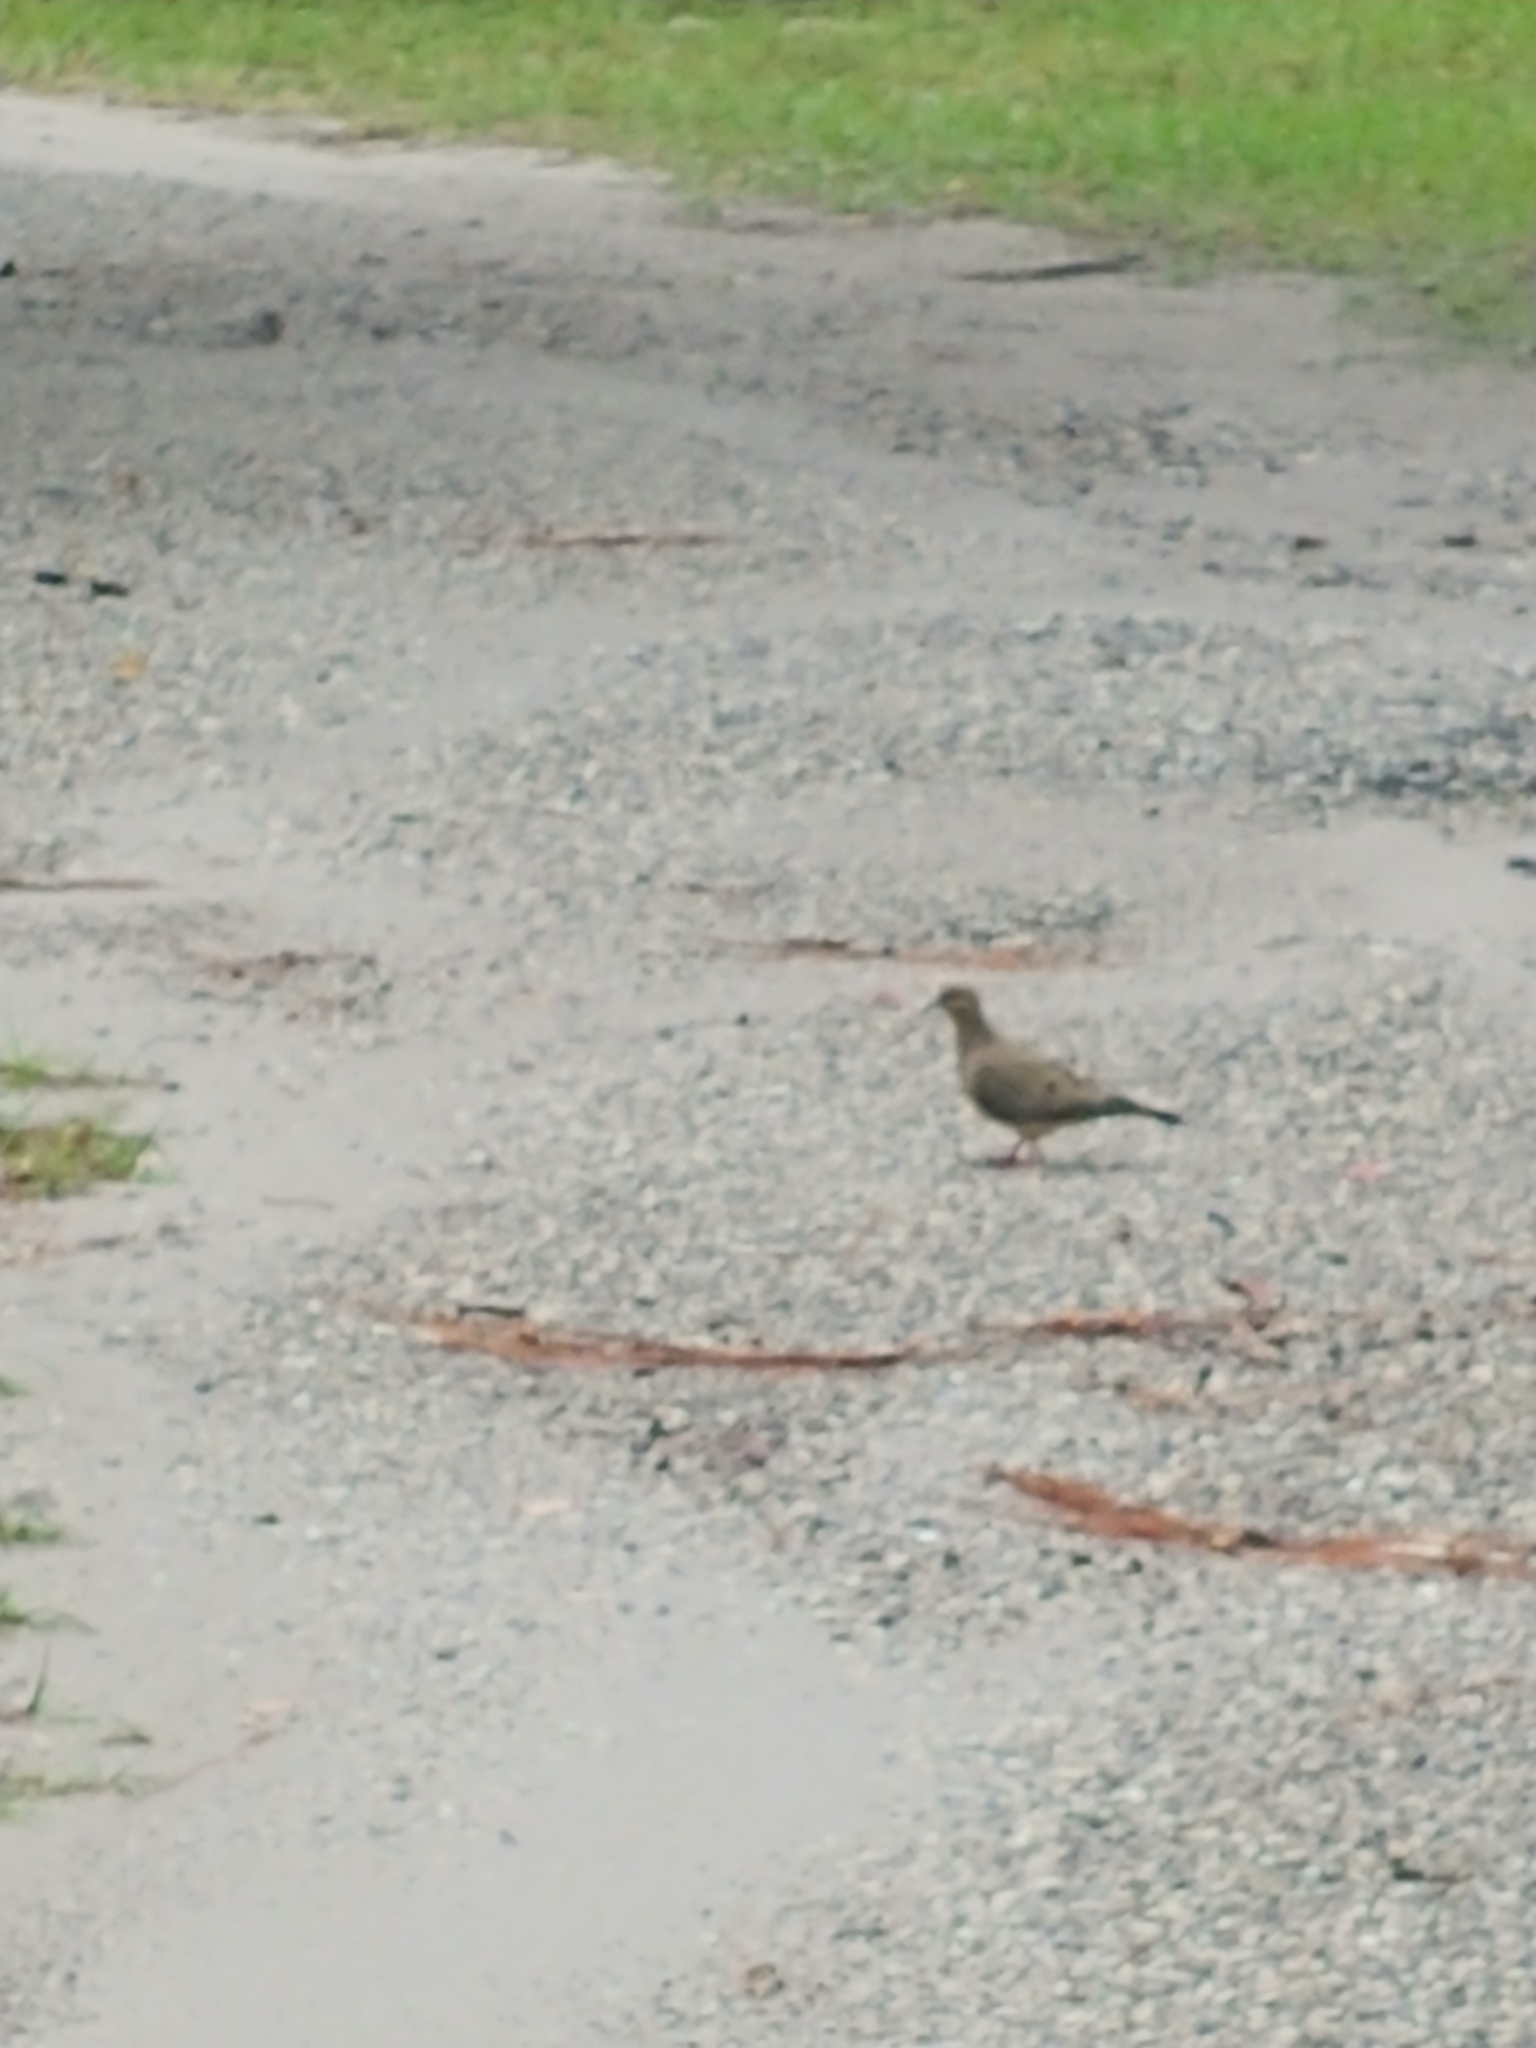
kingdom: Animalia
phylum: Chordata
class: Aves
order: Columbiformes
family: Columbidae
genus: Zenaida
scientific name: Zenaida macroura
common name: Mourning dove
